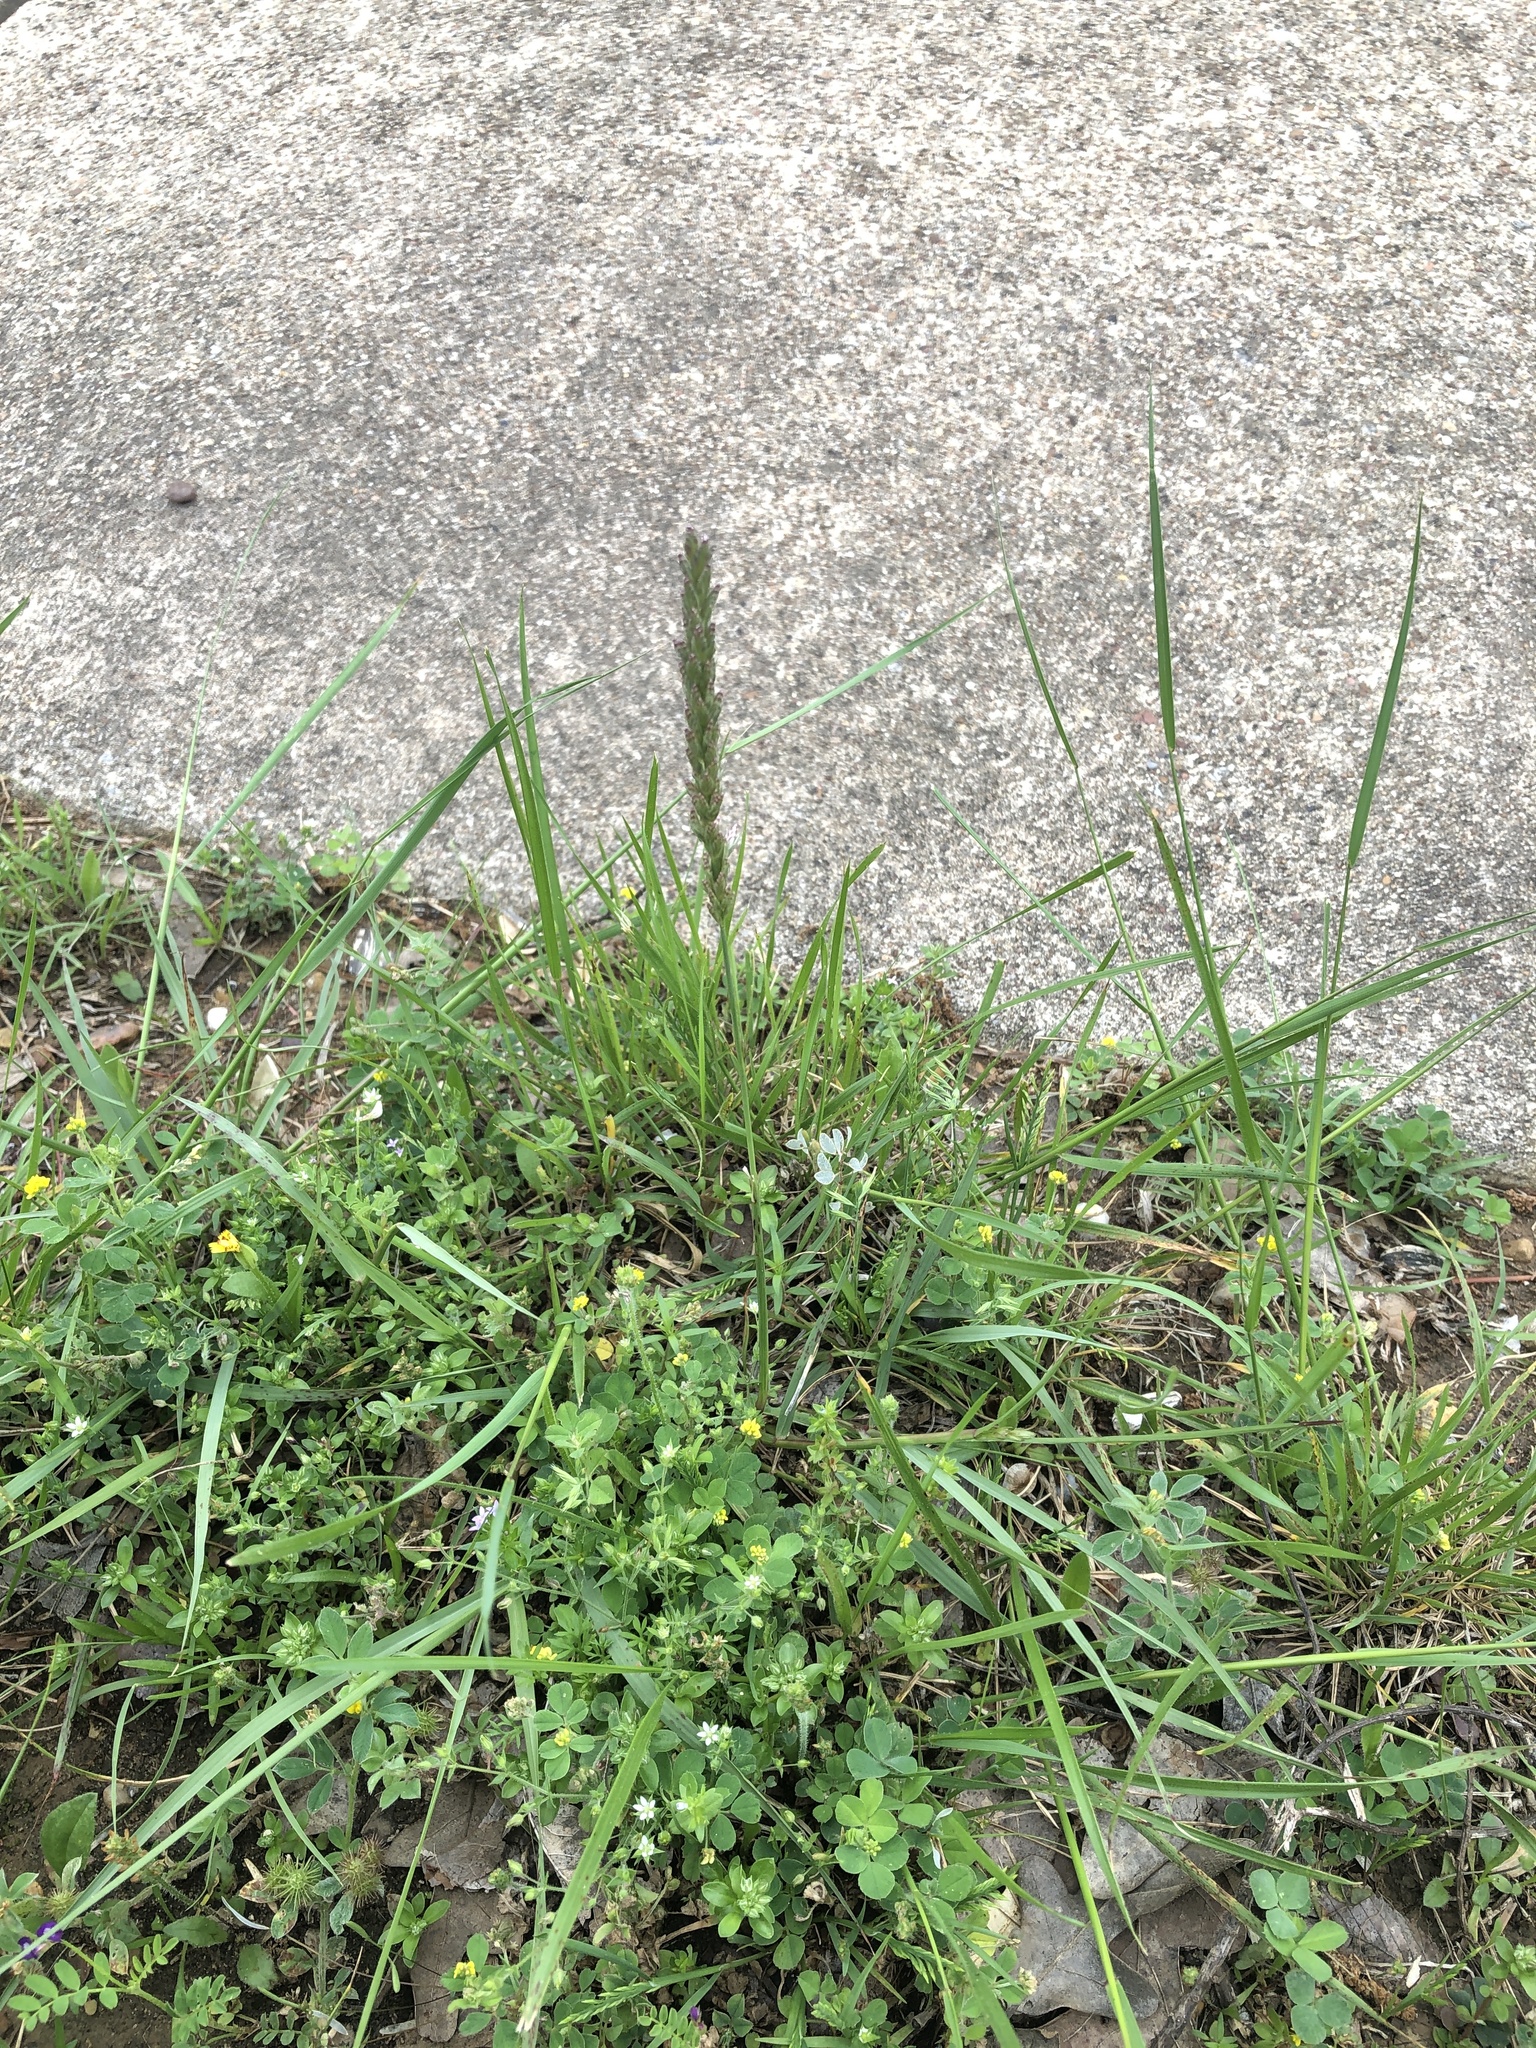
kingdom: Plantae
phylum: Tracheophyta
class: Liliopsida
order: Poales
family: Poaceae
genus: Tridens
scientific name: Tridens albescens
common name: White tridens
